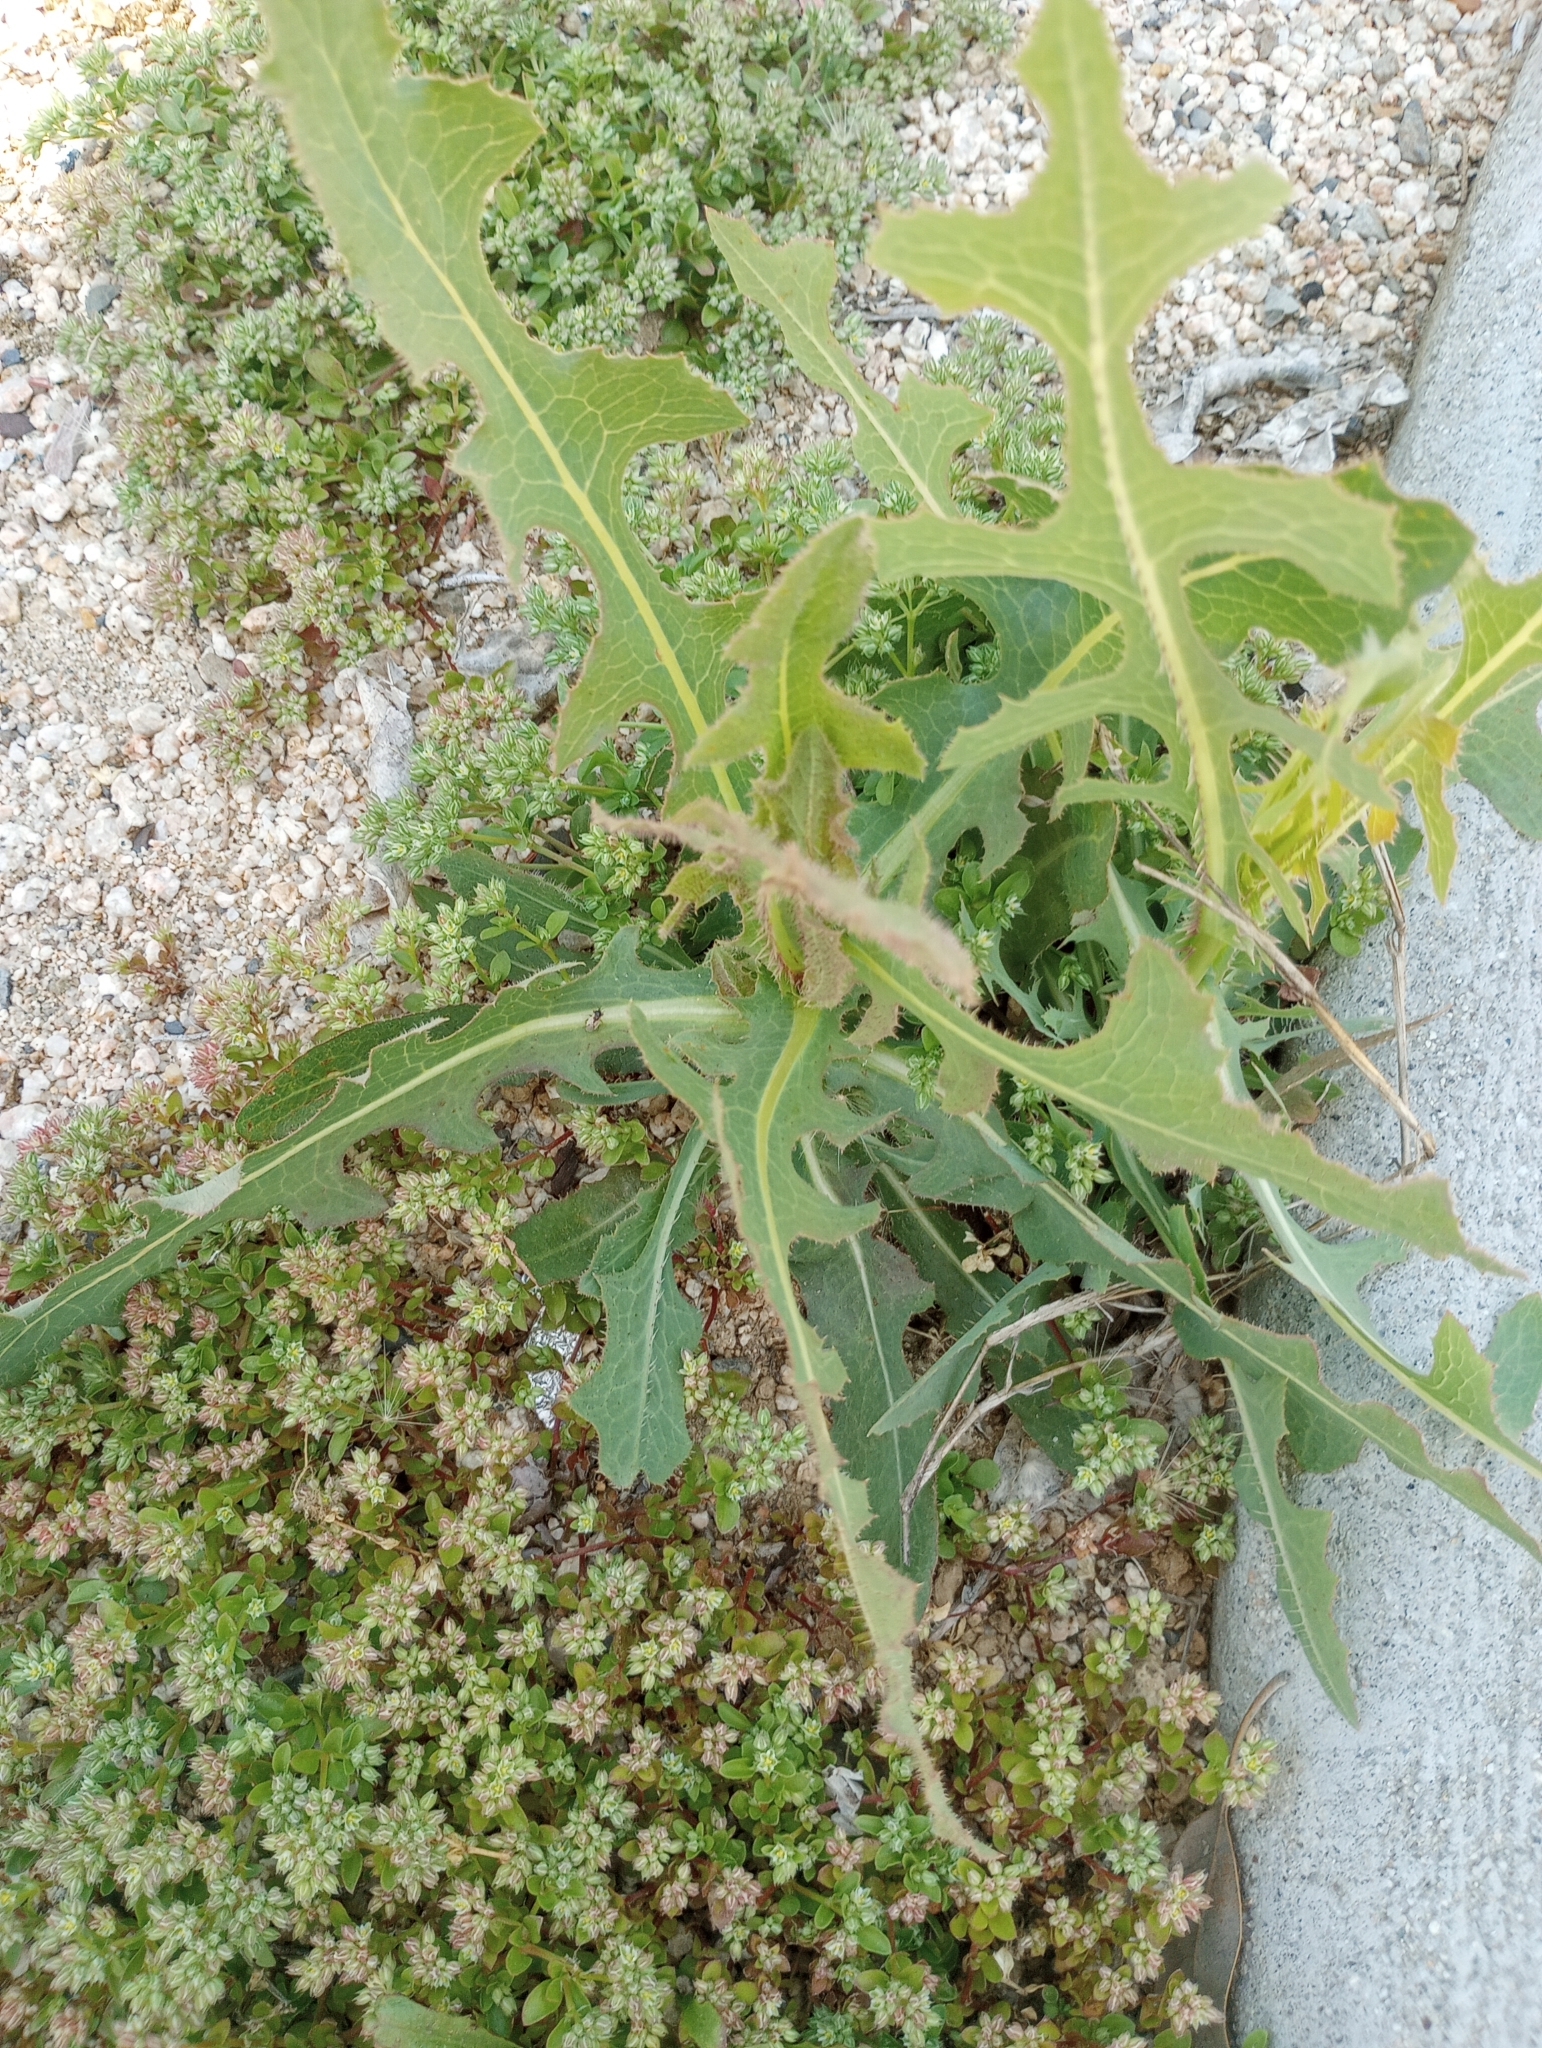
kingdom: Plantae
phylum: Tracheophyta
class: Magnoliopsida
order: Asterales
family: Asteraceae
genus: Lactuca
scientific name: Lactuca serriola
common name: Prickly lettuce
